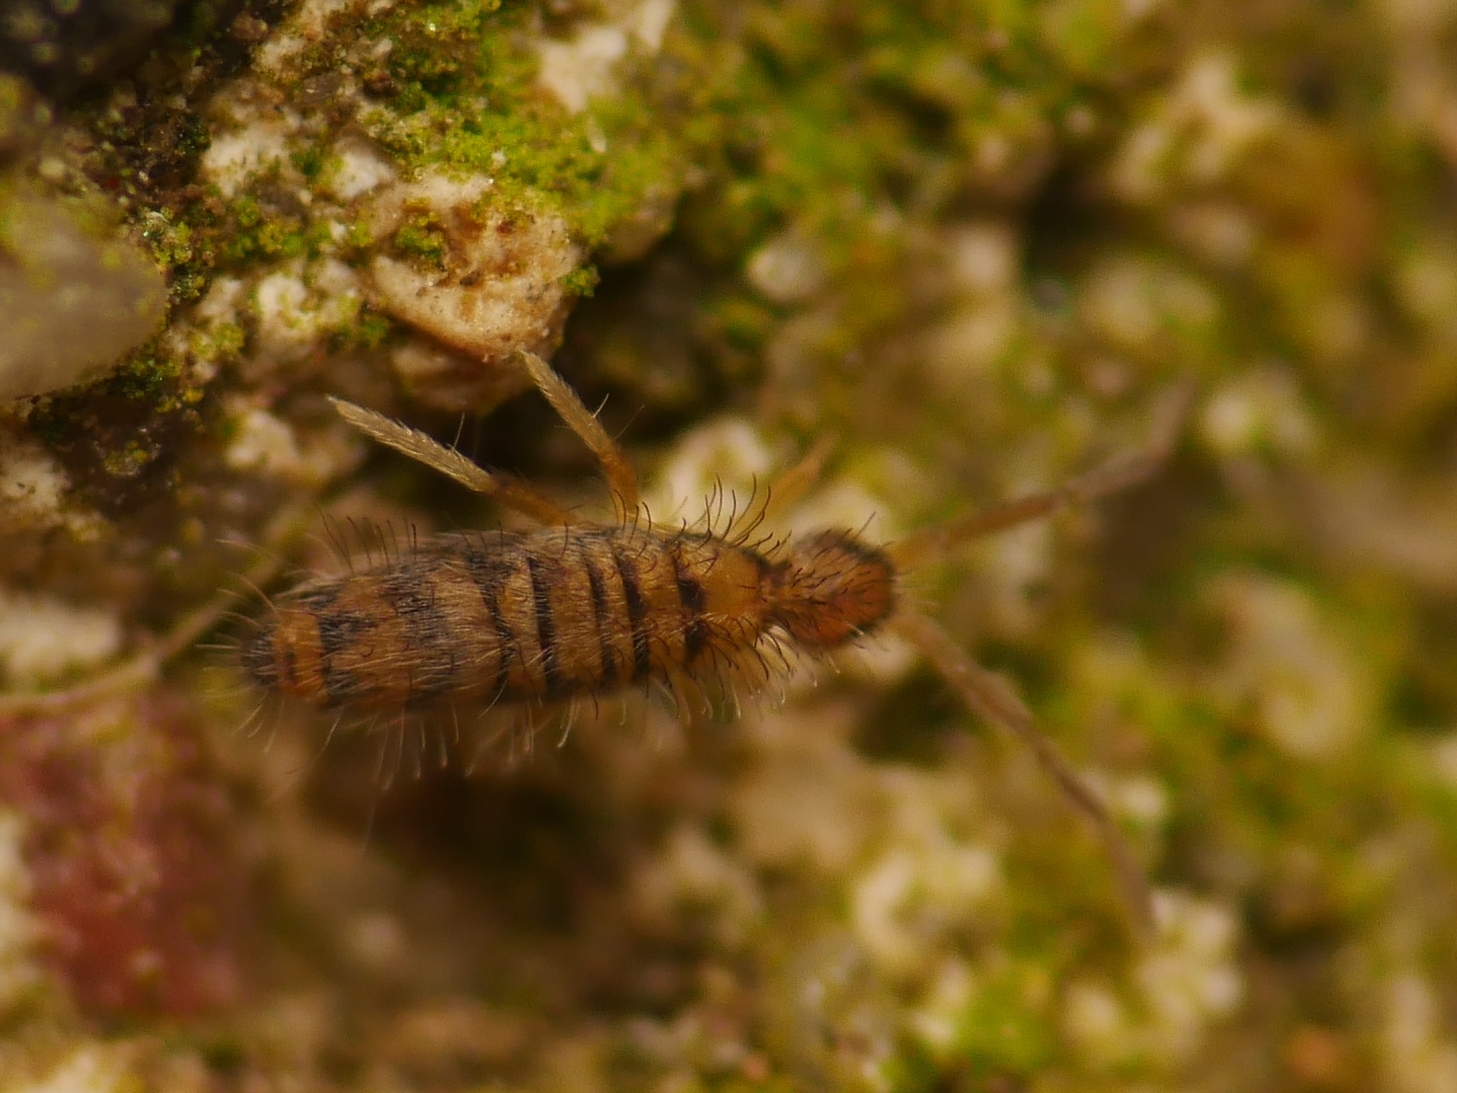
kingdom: Animalia
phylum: Arthropoda
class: Collembola
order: Entomobryomorpha
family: Entomobryidae
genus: Entomobrya
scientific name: Entomobrya multifasciata
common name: Springtail
